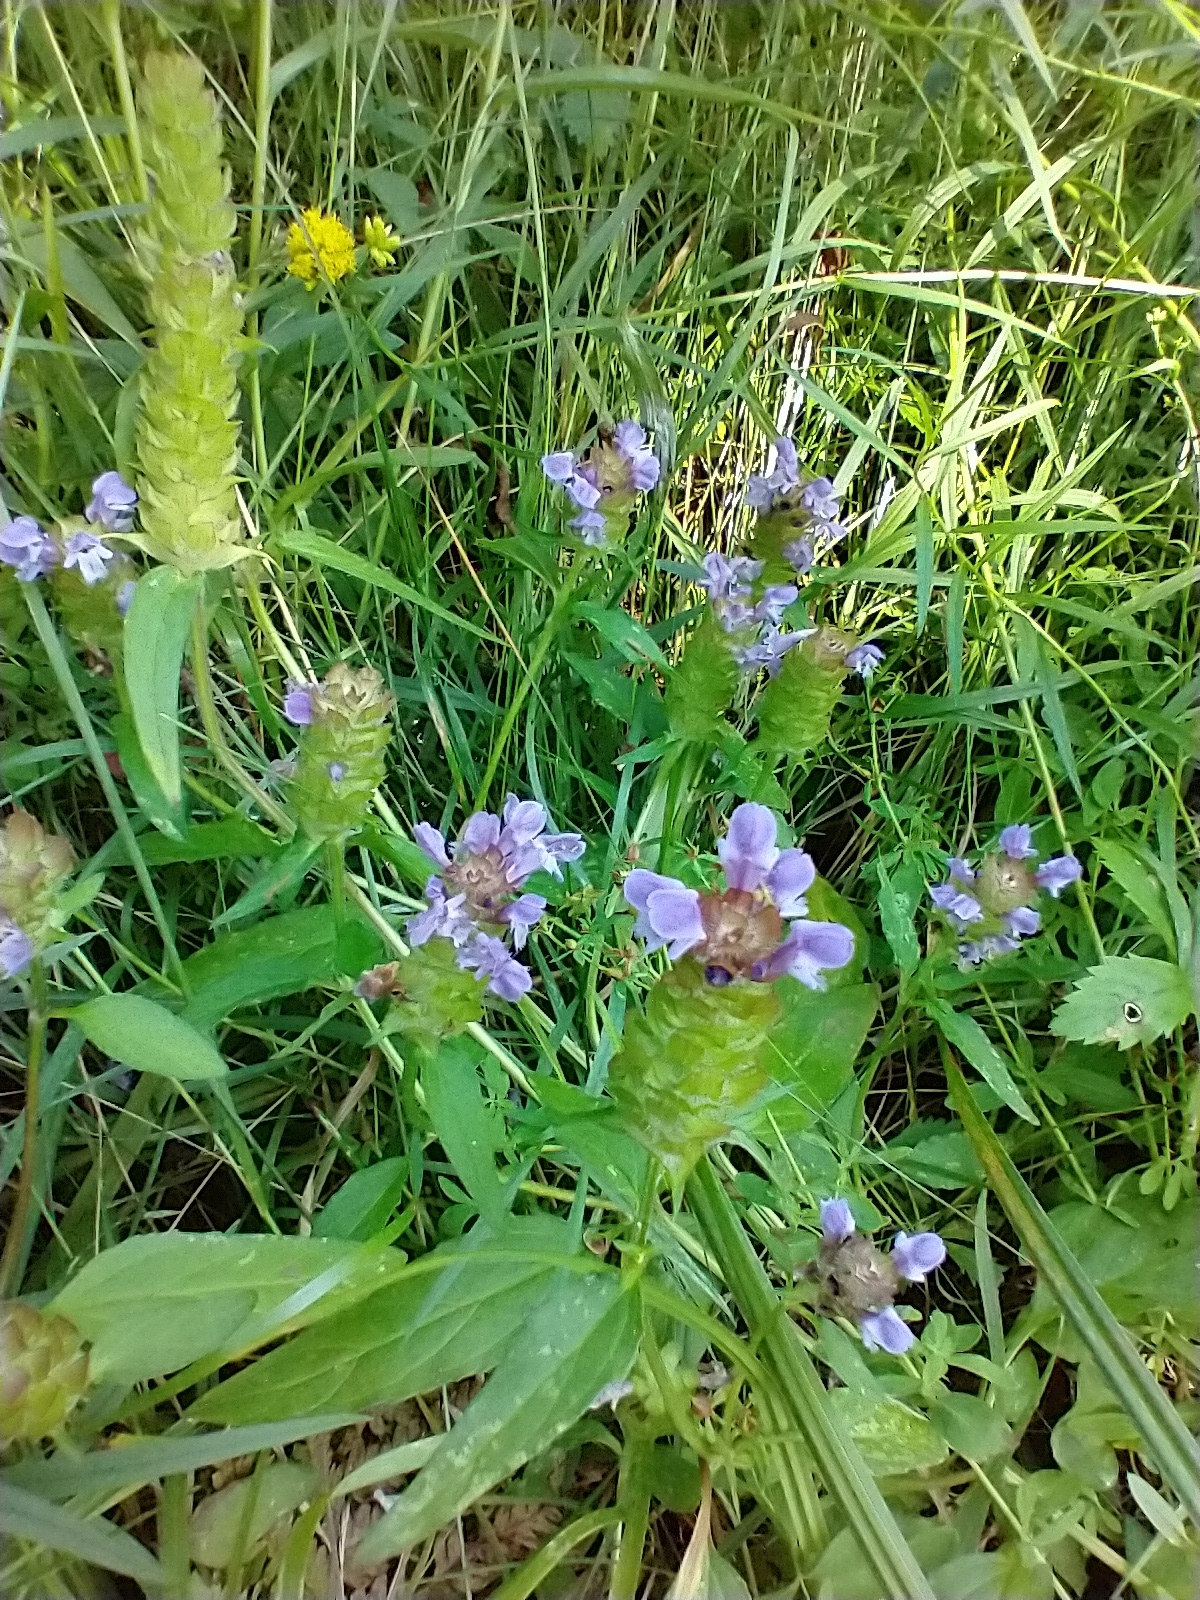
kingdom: Plantae
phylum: Tracheophyta
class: Magnoliopsida
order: Lamiales
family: Lamiaceae
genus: Prunella
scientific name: Prunella vulgaris
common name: Heal-all
